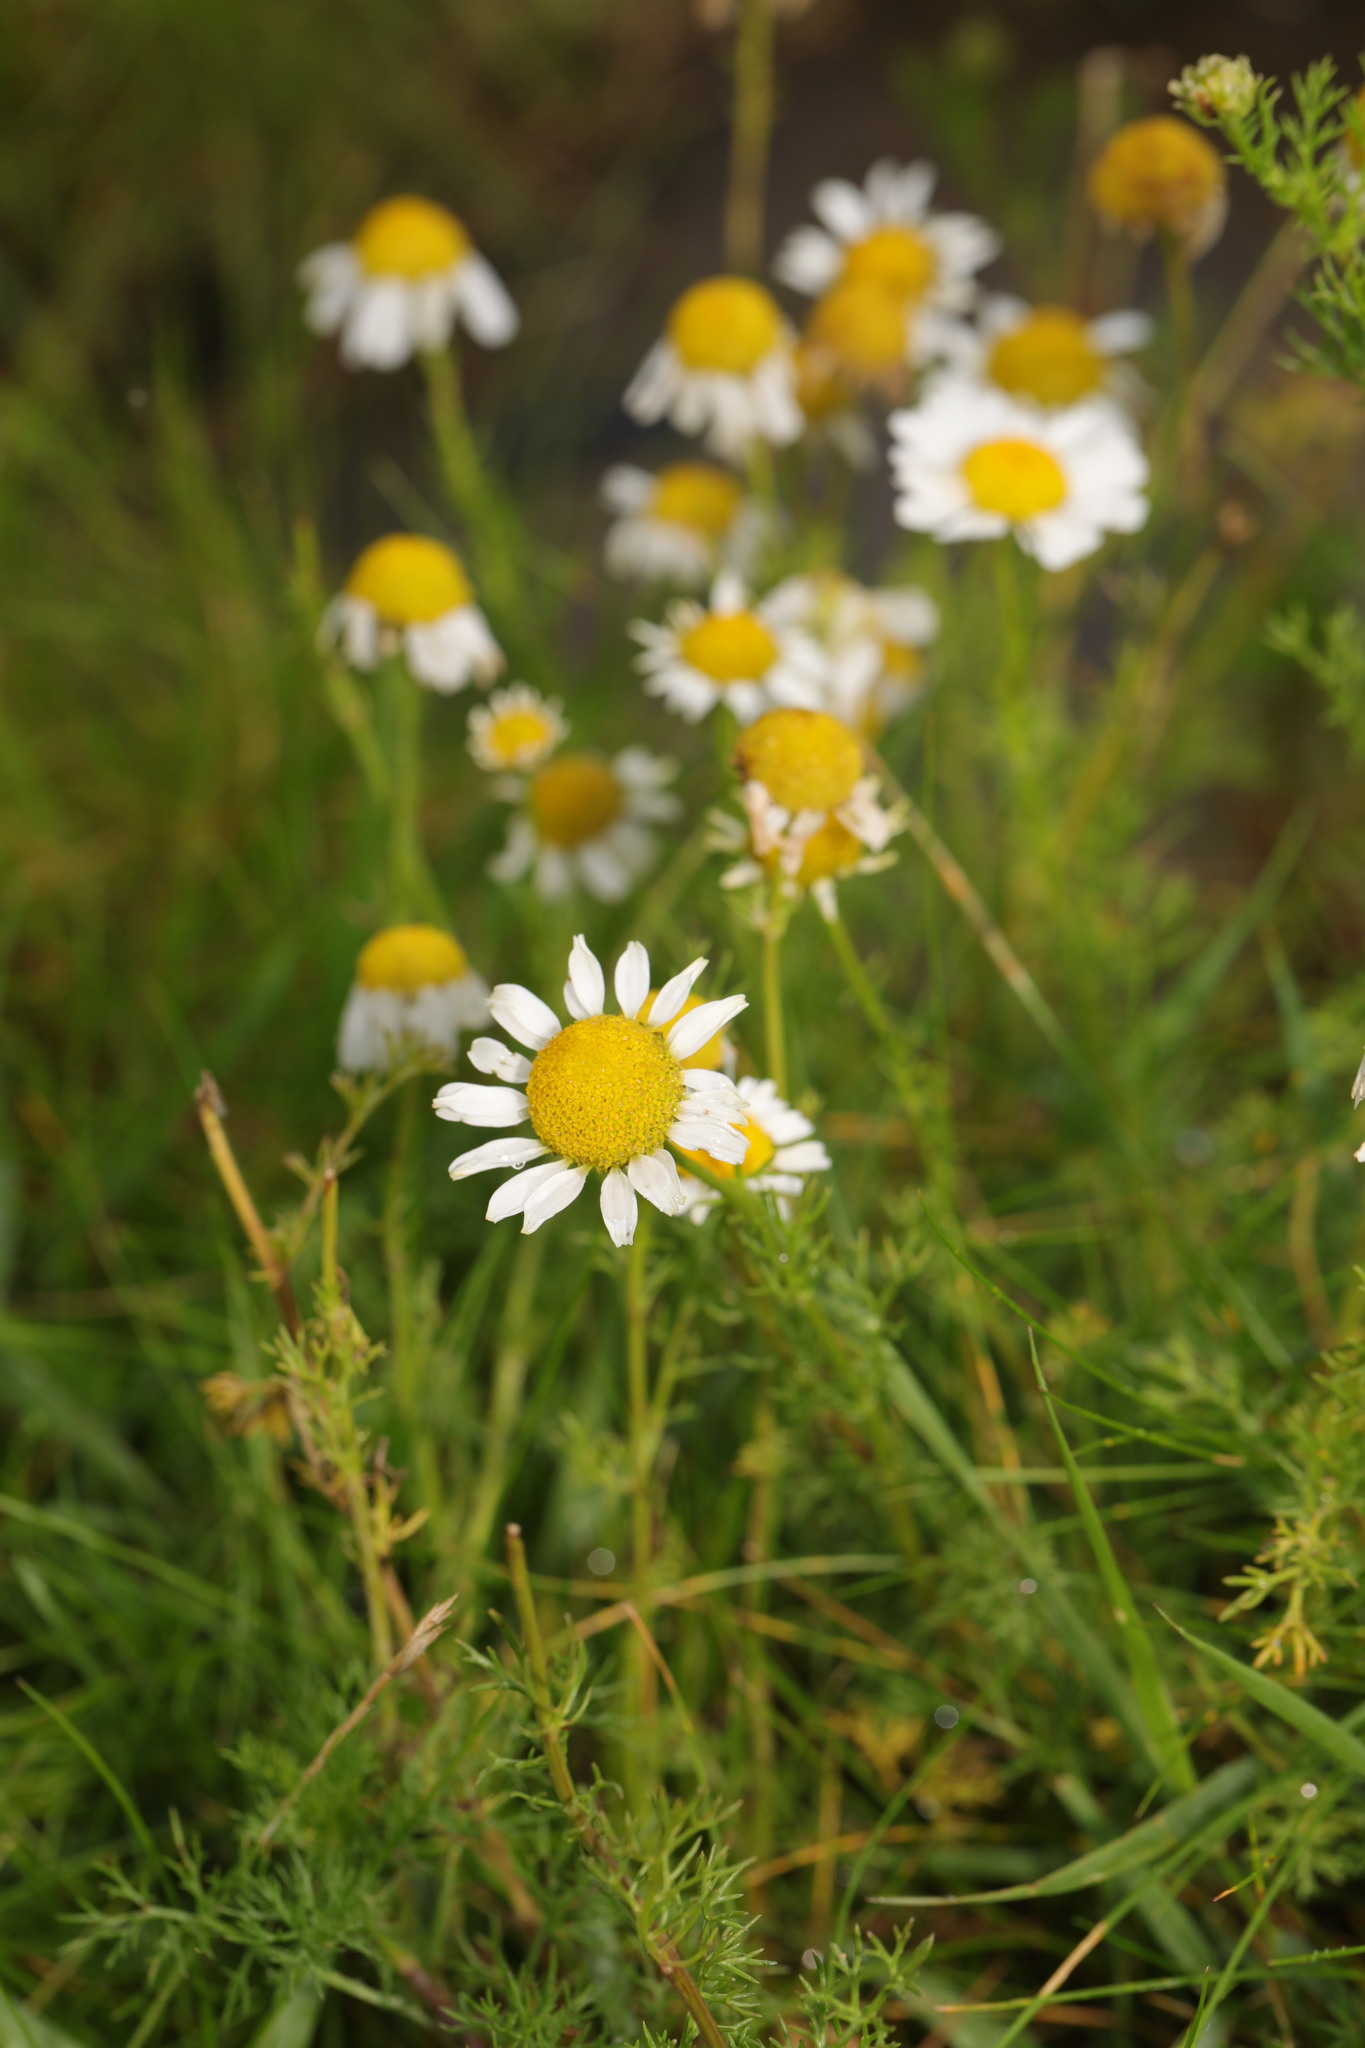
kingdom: Plantae
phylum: Tracheophyta
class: Magnoliopsida
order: Asterales
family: Asteraceae
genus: Matricaria
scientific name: Matricaria chamomilla
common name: Scented mayweed
